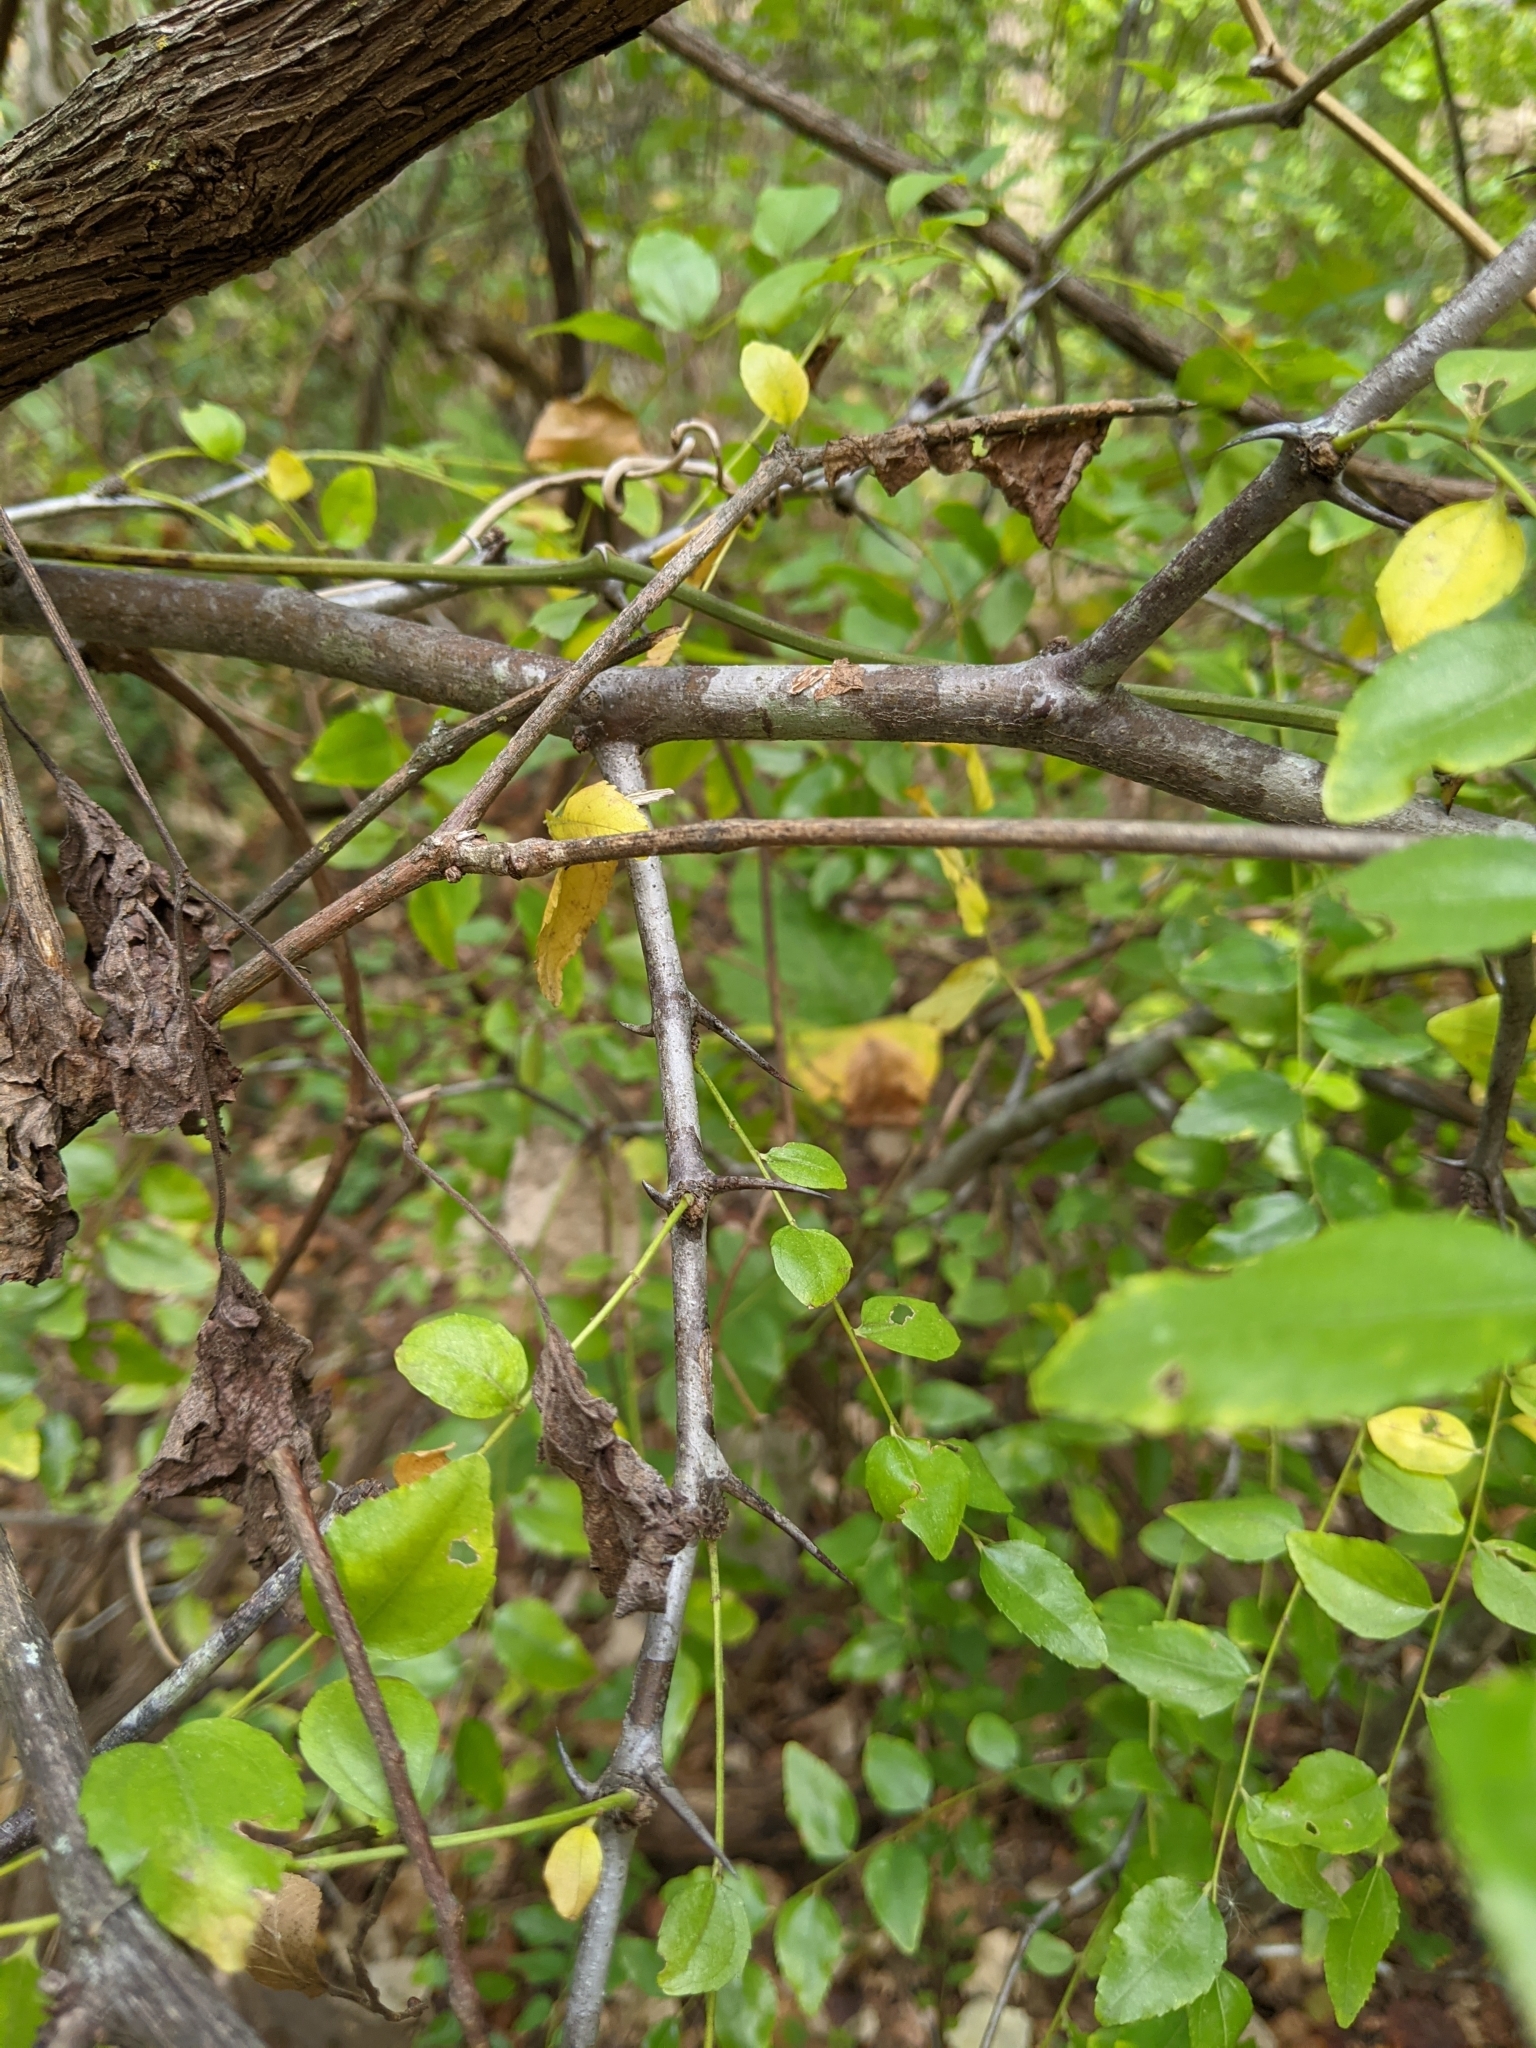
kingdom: Plantae
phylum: Tracheophyta
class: Magnoliopsida
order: Rosales
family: Rhamnaceae
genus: Ziziphus
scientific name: Ziziphus jujuba
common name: Jujube red date
